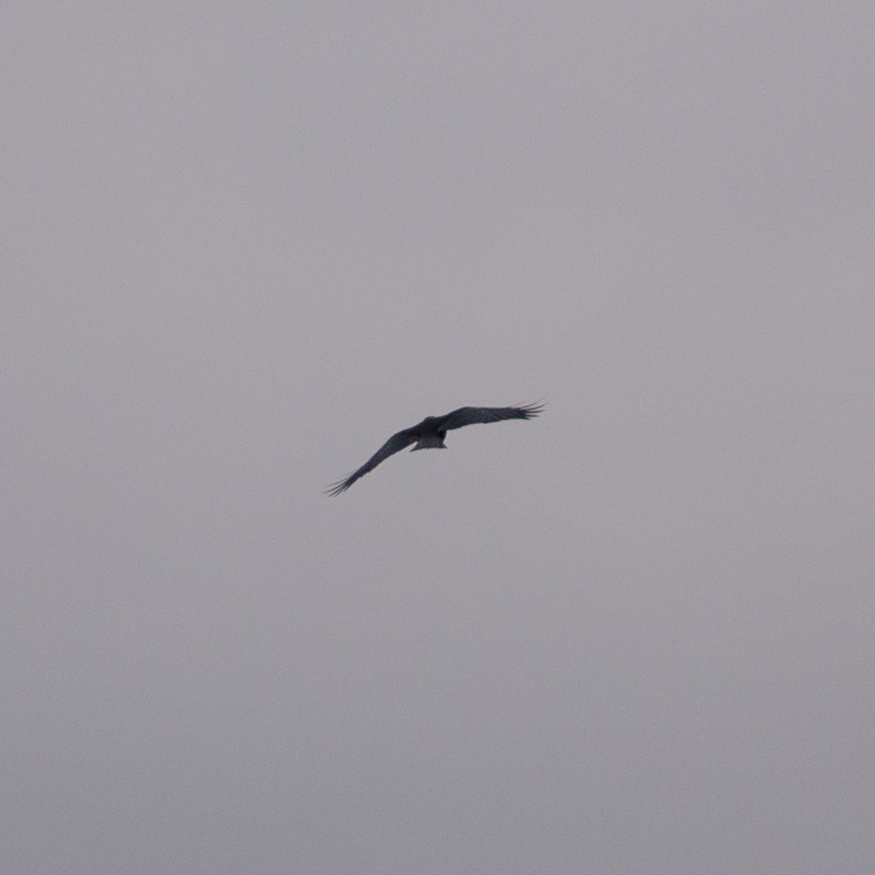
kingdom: Animalia
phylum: Chordata
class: Aves
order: Passeriformes
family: Corvidae
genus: Pyrrhocorax
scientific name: Pyrrhocorax pyrrhocorax
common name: Red-billed chough
